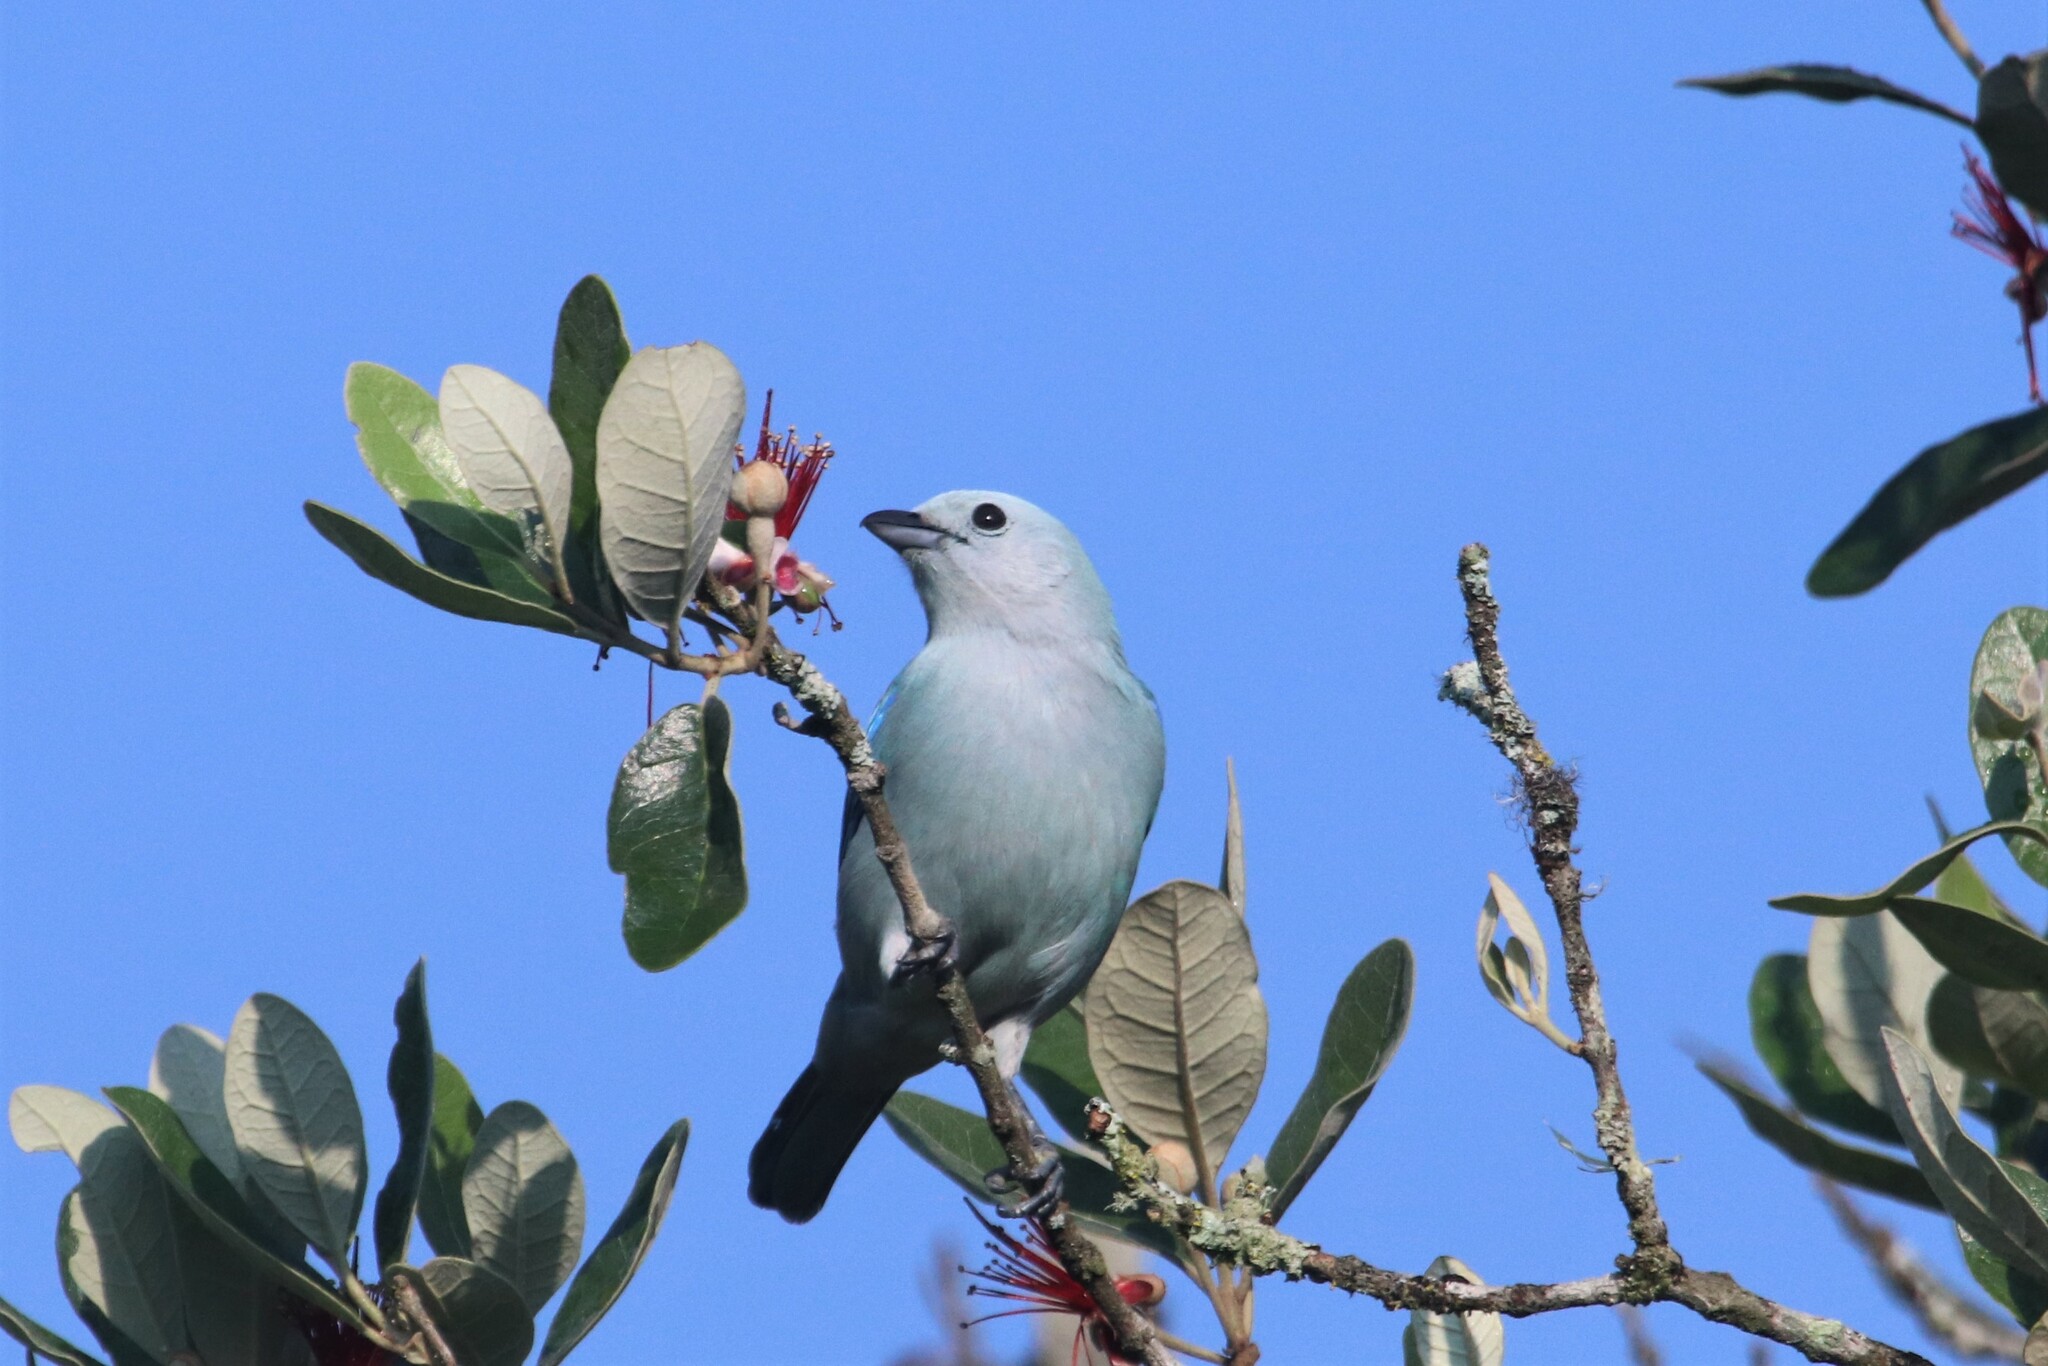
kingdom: Animalia
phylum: Chordata
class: Aves
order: Passeriformes
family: Thraupidae
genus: Thraupis
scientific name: Thraupis episcopus
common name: Blue-grey tanager
